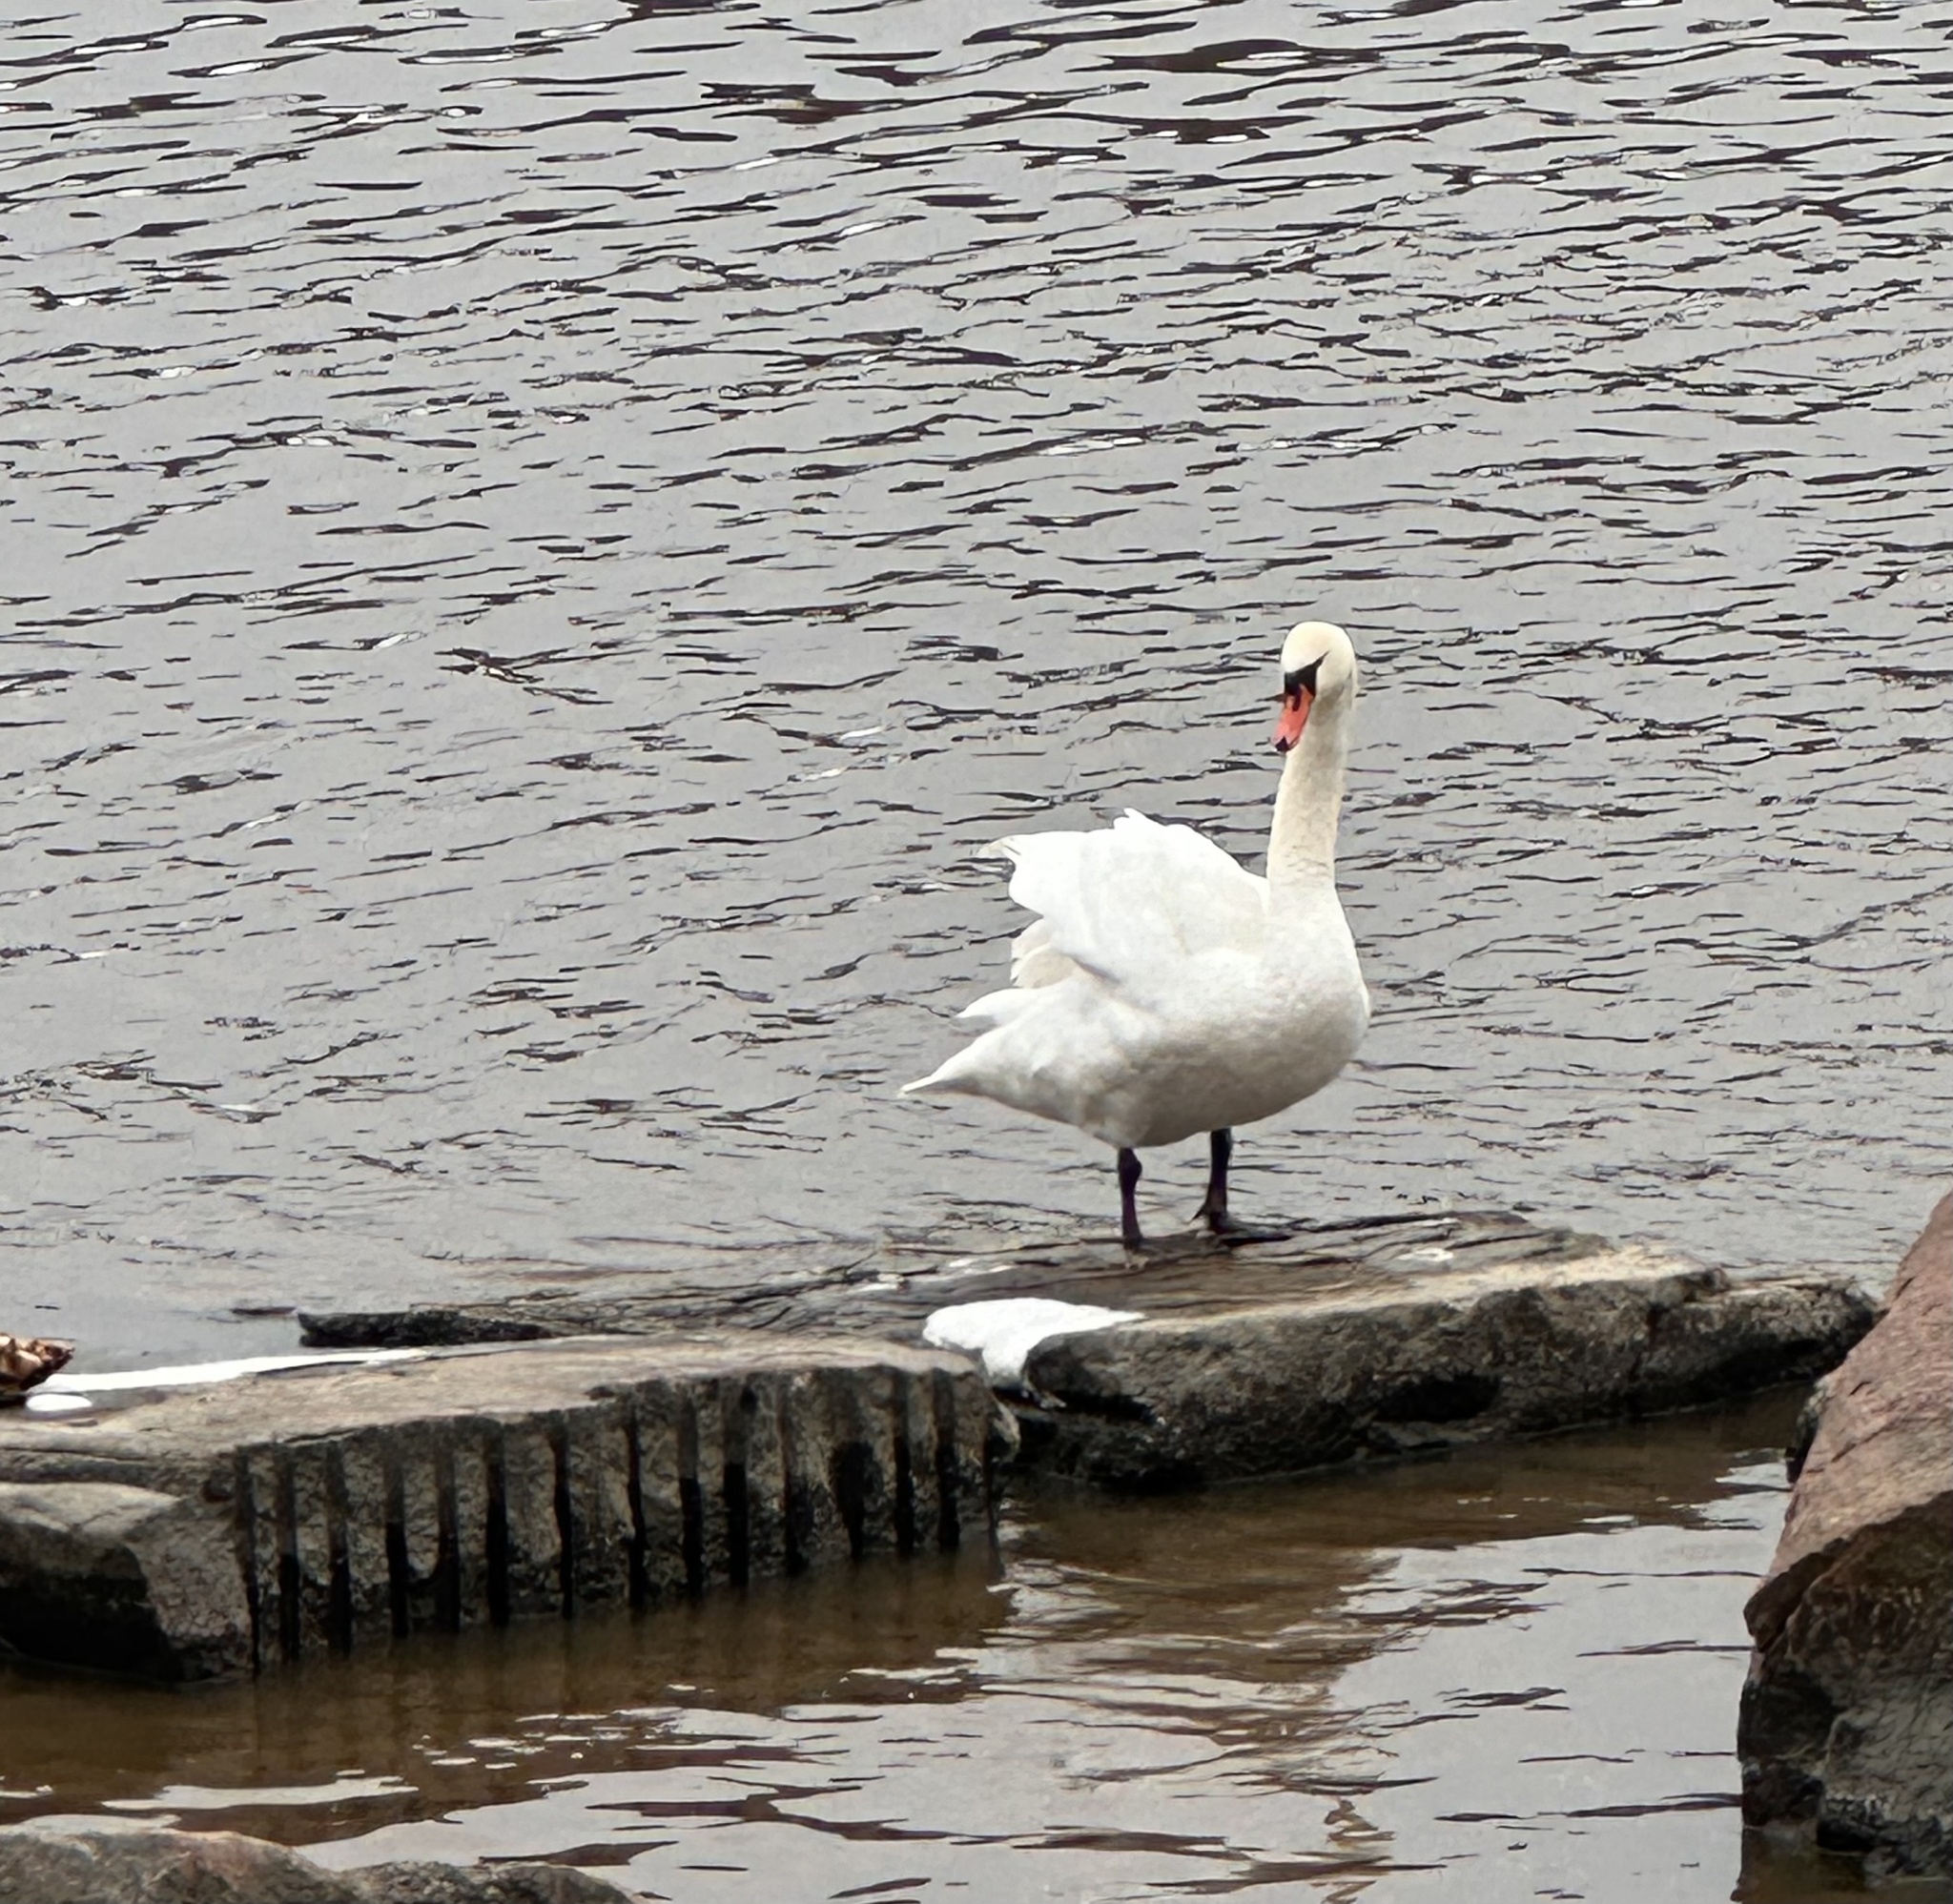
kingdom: Animalia
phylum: Chordata
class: Aves
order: Anseriformes
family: Anatidae
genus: Cygnus
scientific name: Cygnus olor
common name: Mute swan
